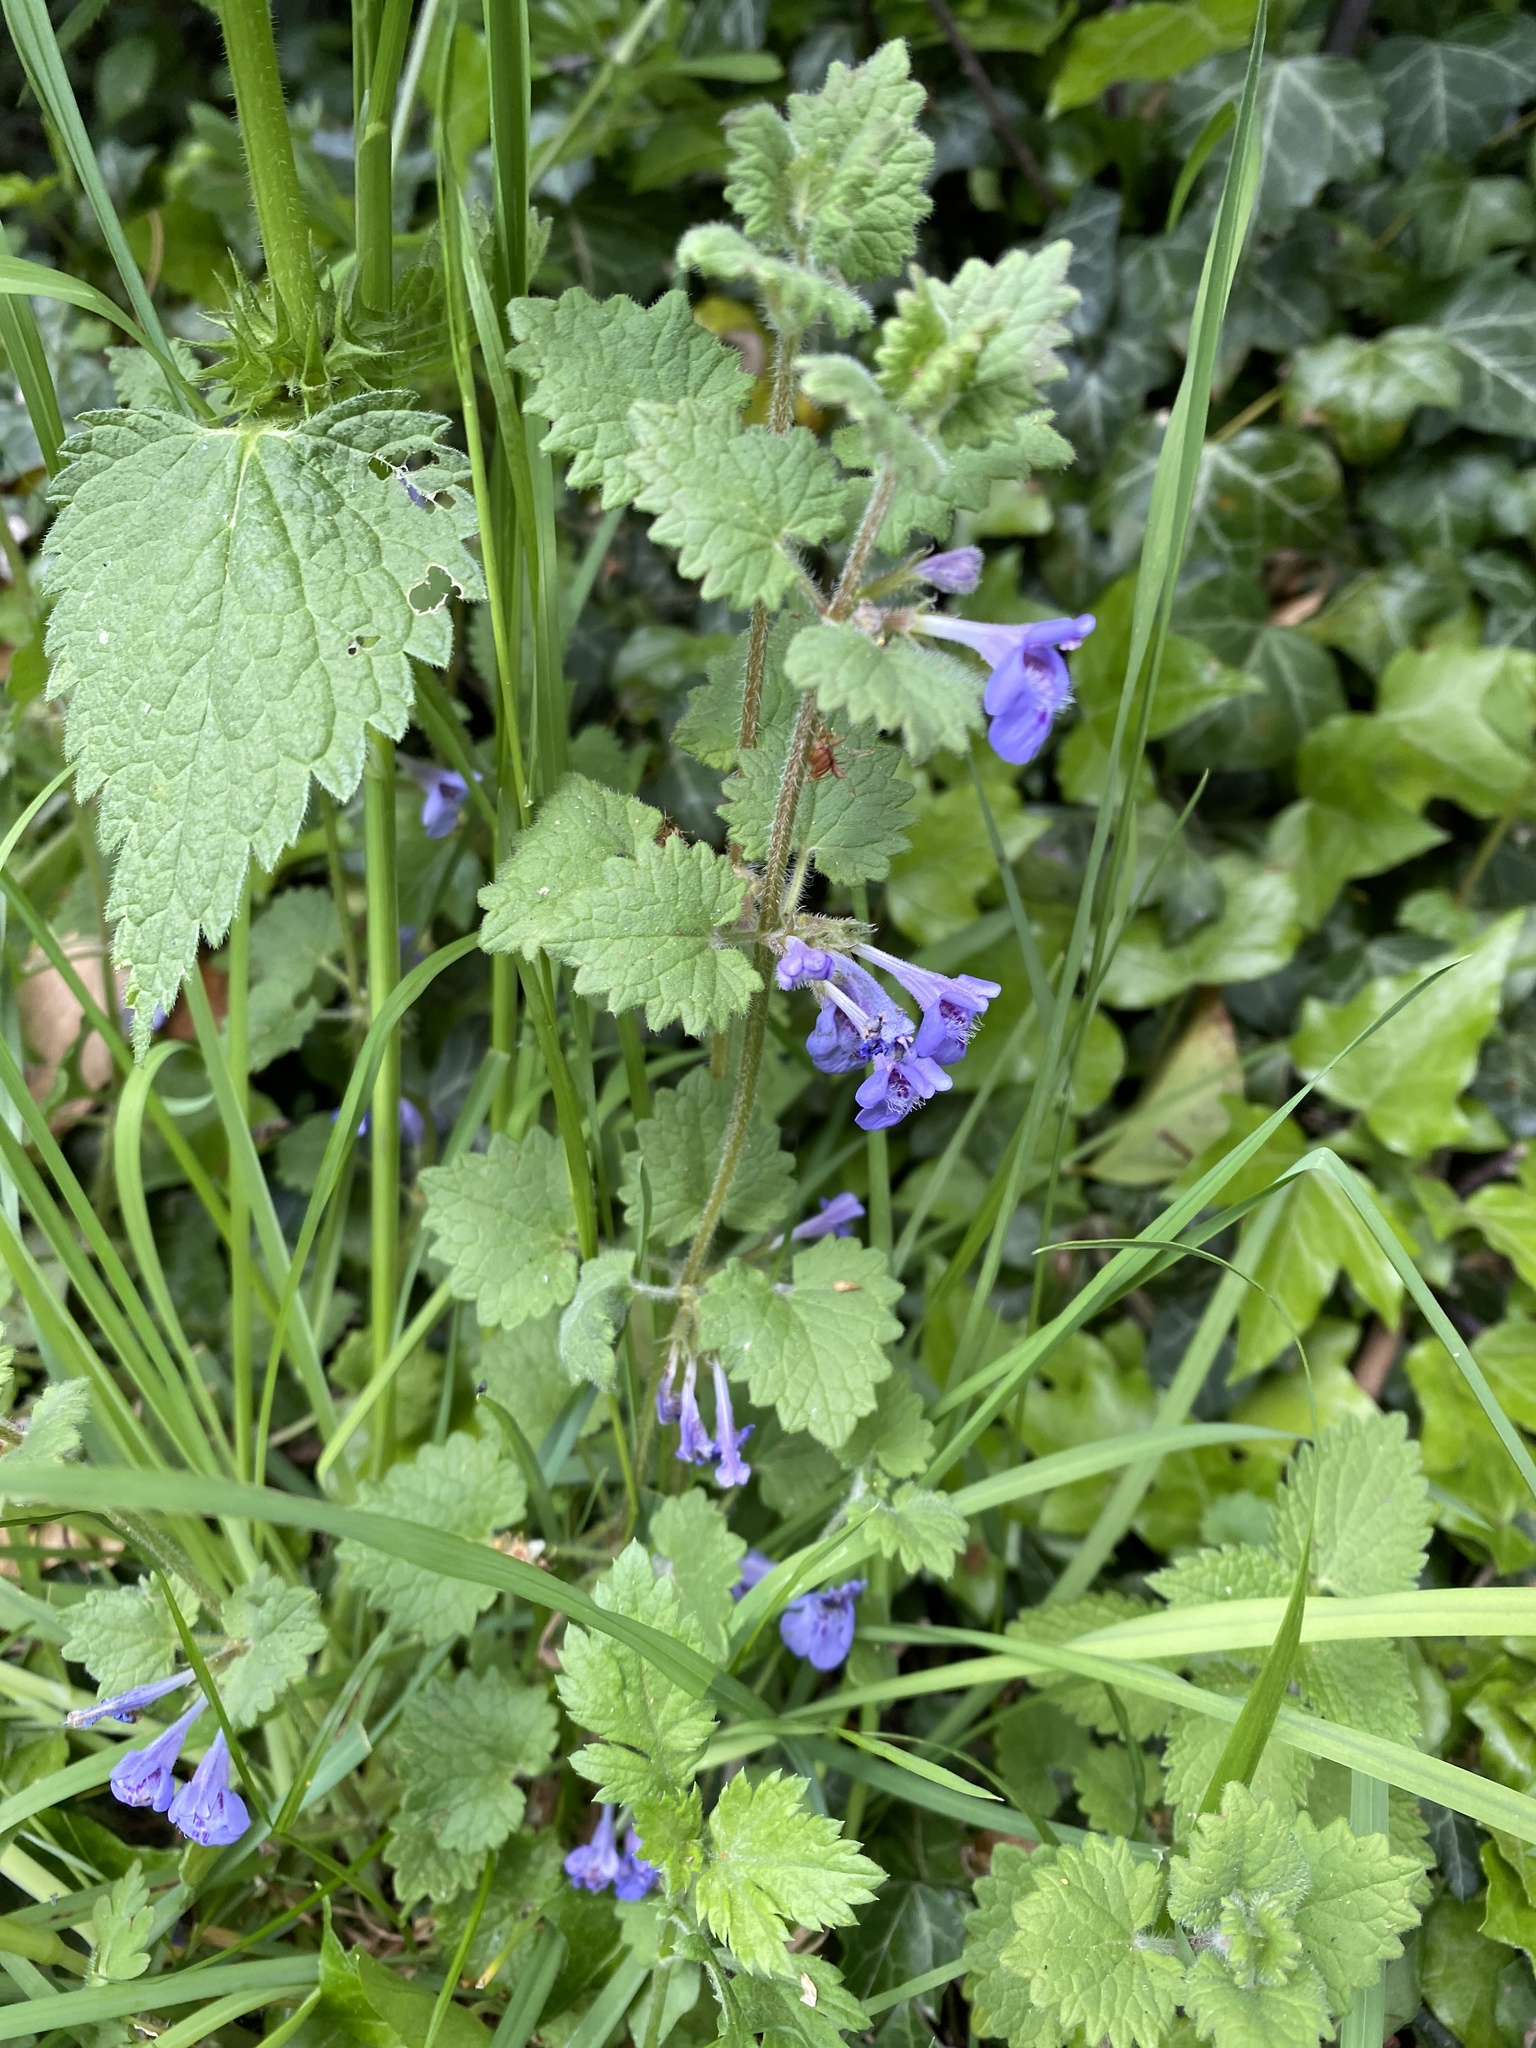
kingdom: Plantae
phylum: Tracheophyta
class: Magnoliopsida
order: Lamiales
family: Lamiaceae
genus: Glechoma
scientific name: Glechoma hederacea
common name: Ground ivy
